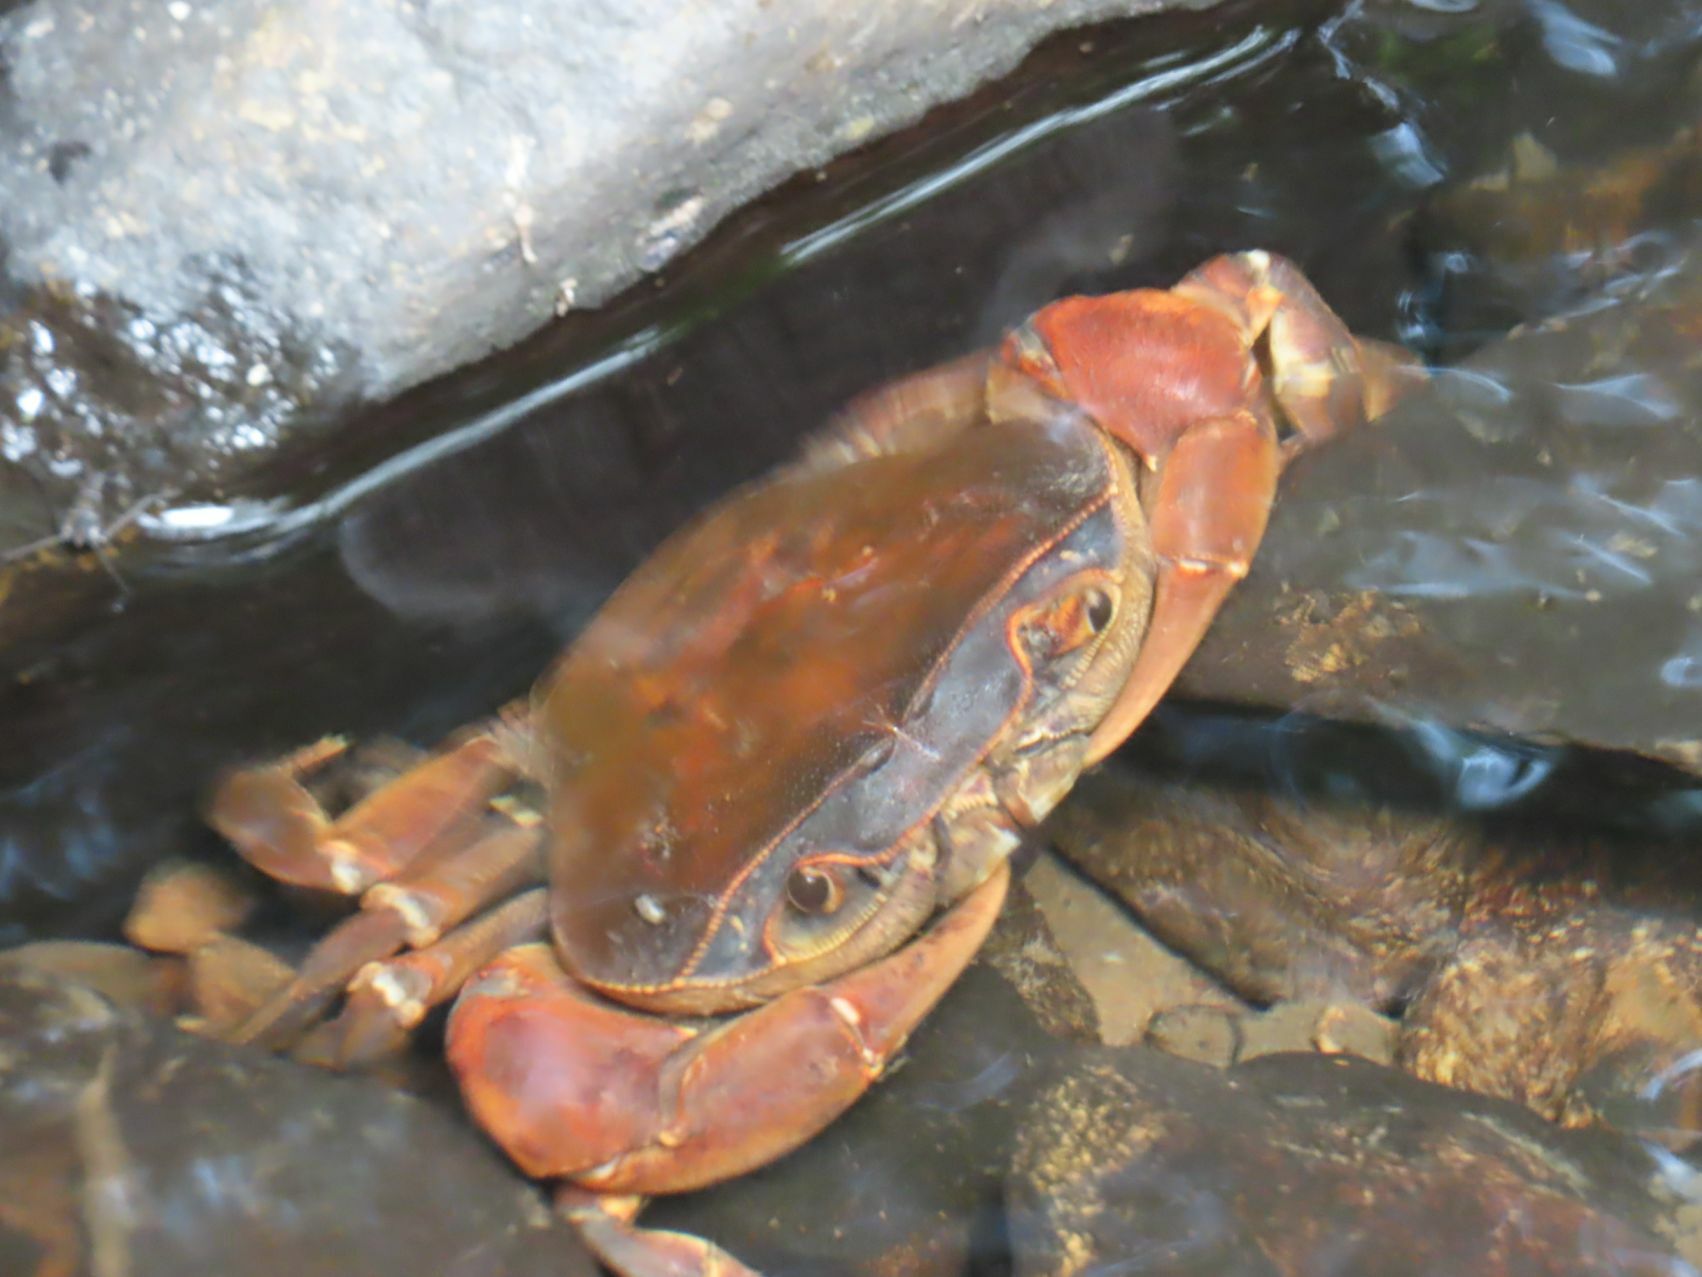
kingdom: Animalia
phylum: Arthropoda
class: Malacostraca
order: Decapoda
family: Potamonautidae
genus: Potamonautes
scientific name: Potamonautes sidneyi
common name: Natal river crab
